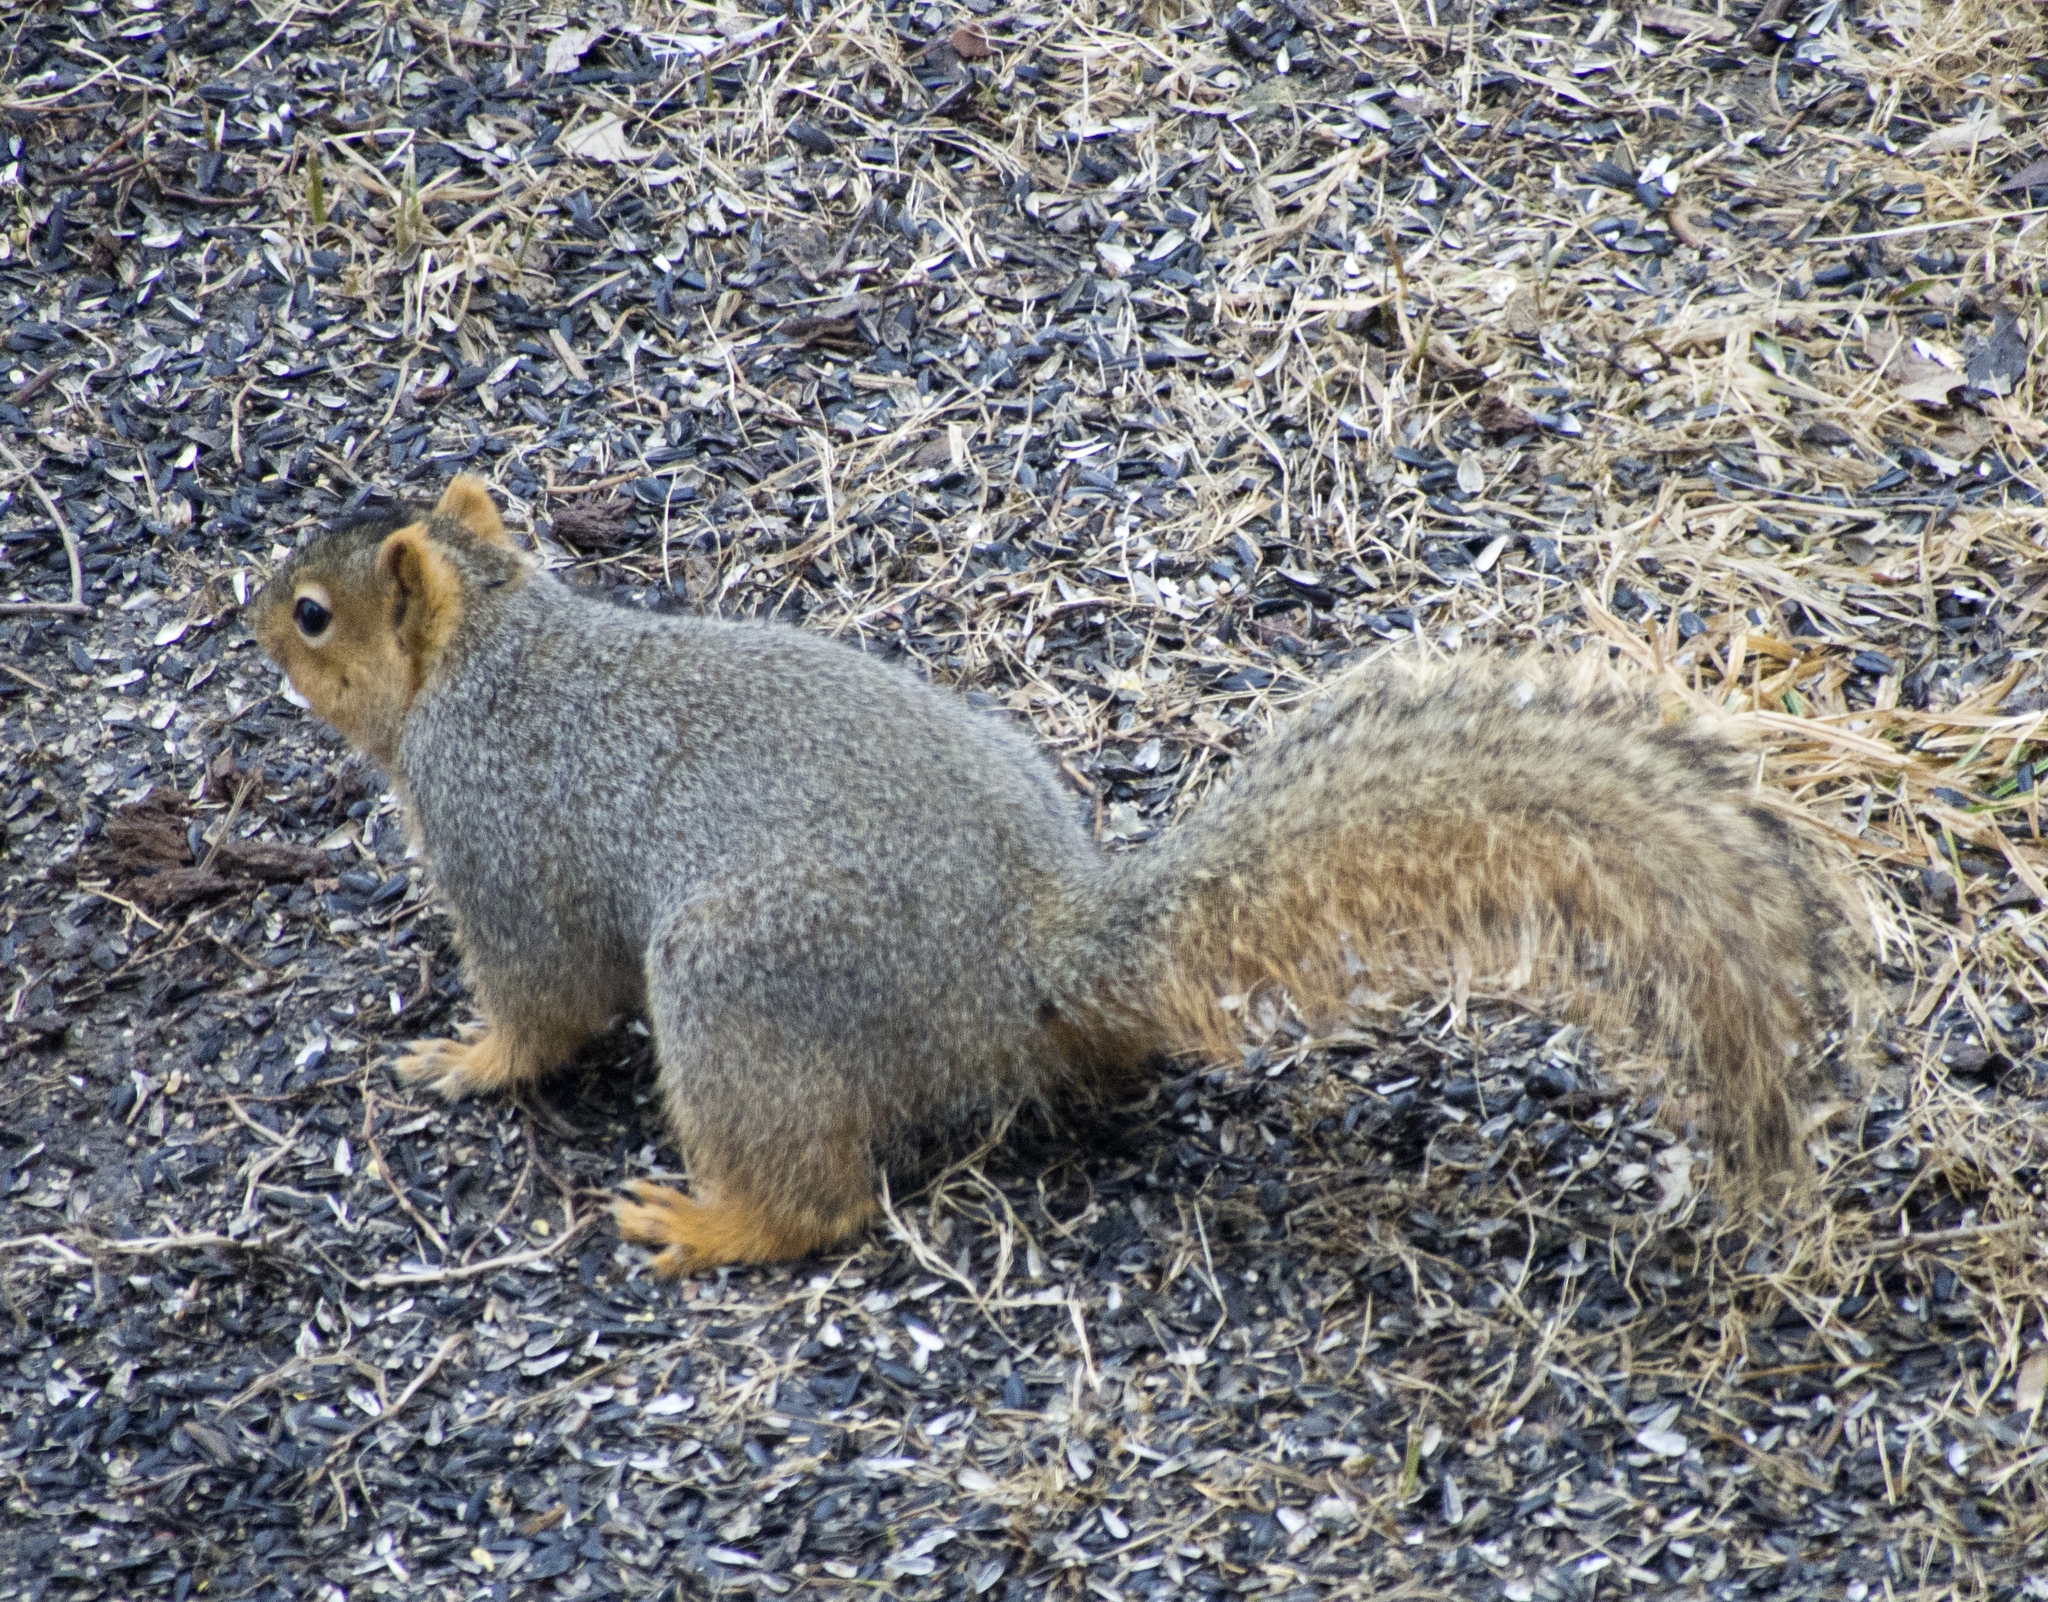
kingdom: Animalia
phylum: Chordata
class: Mammalia
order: Rodentia
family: Sciuridae
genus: Sciurus
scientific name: Sciurus niger
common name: Fox squirrel
